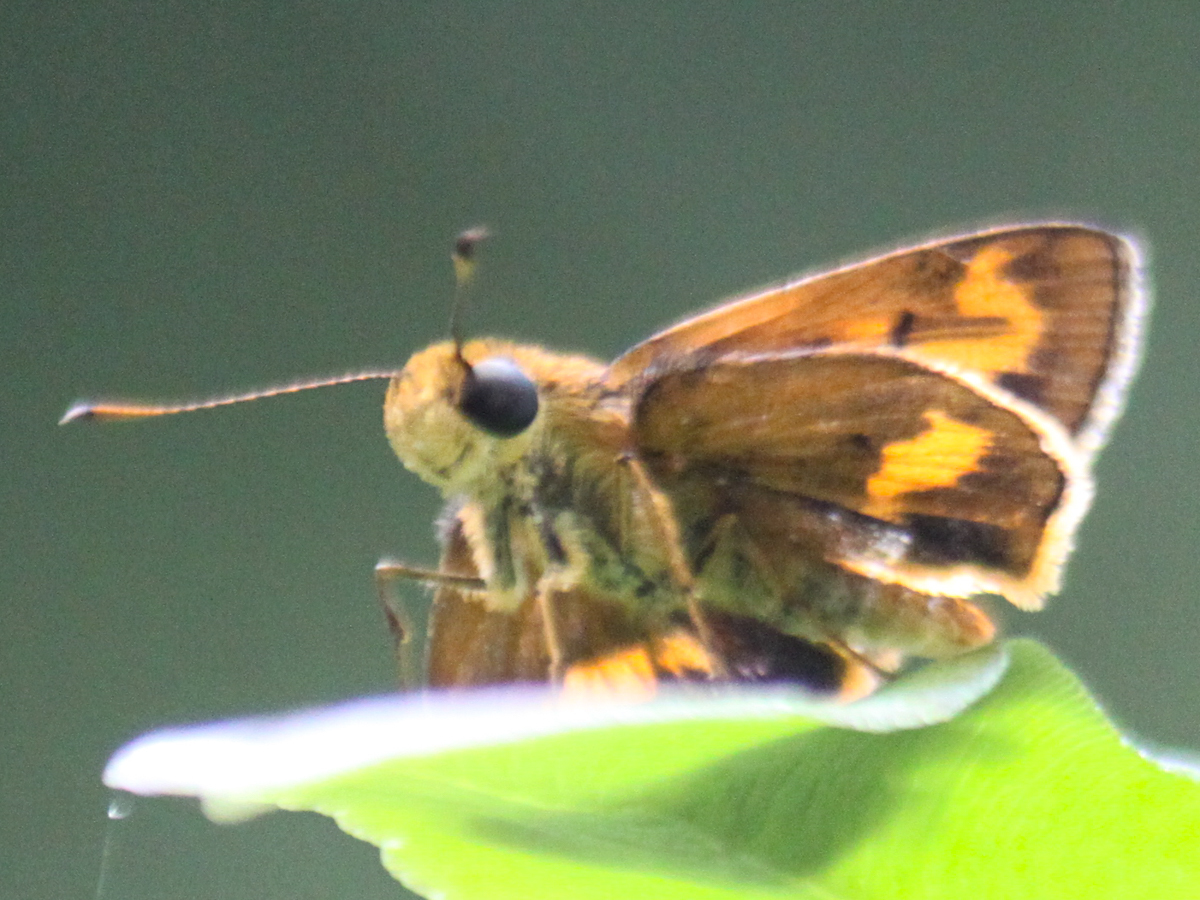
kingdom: Animalia
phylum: Arthropoda
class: Insecta
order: Lepidoptera
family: Hesperiidae
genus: Oriens
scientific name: Oriens gola
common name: Common dartlet
